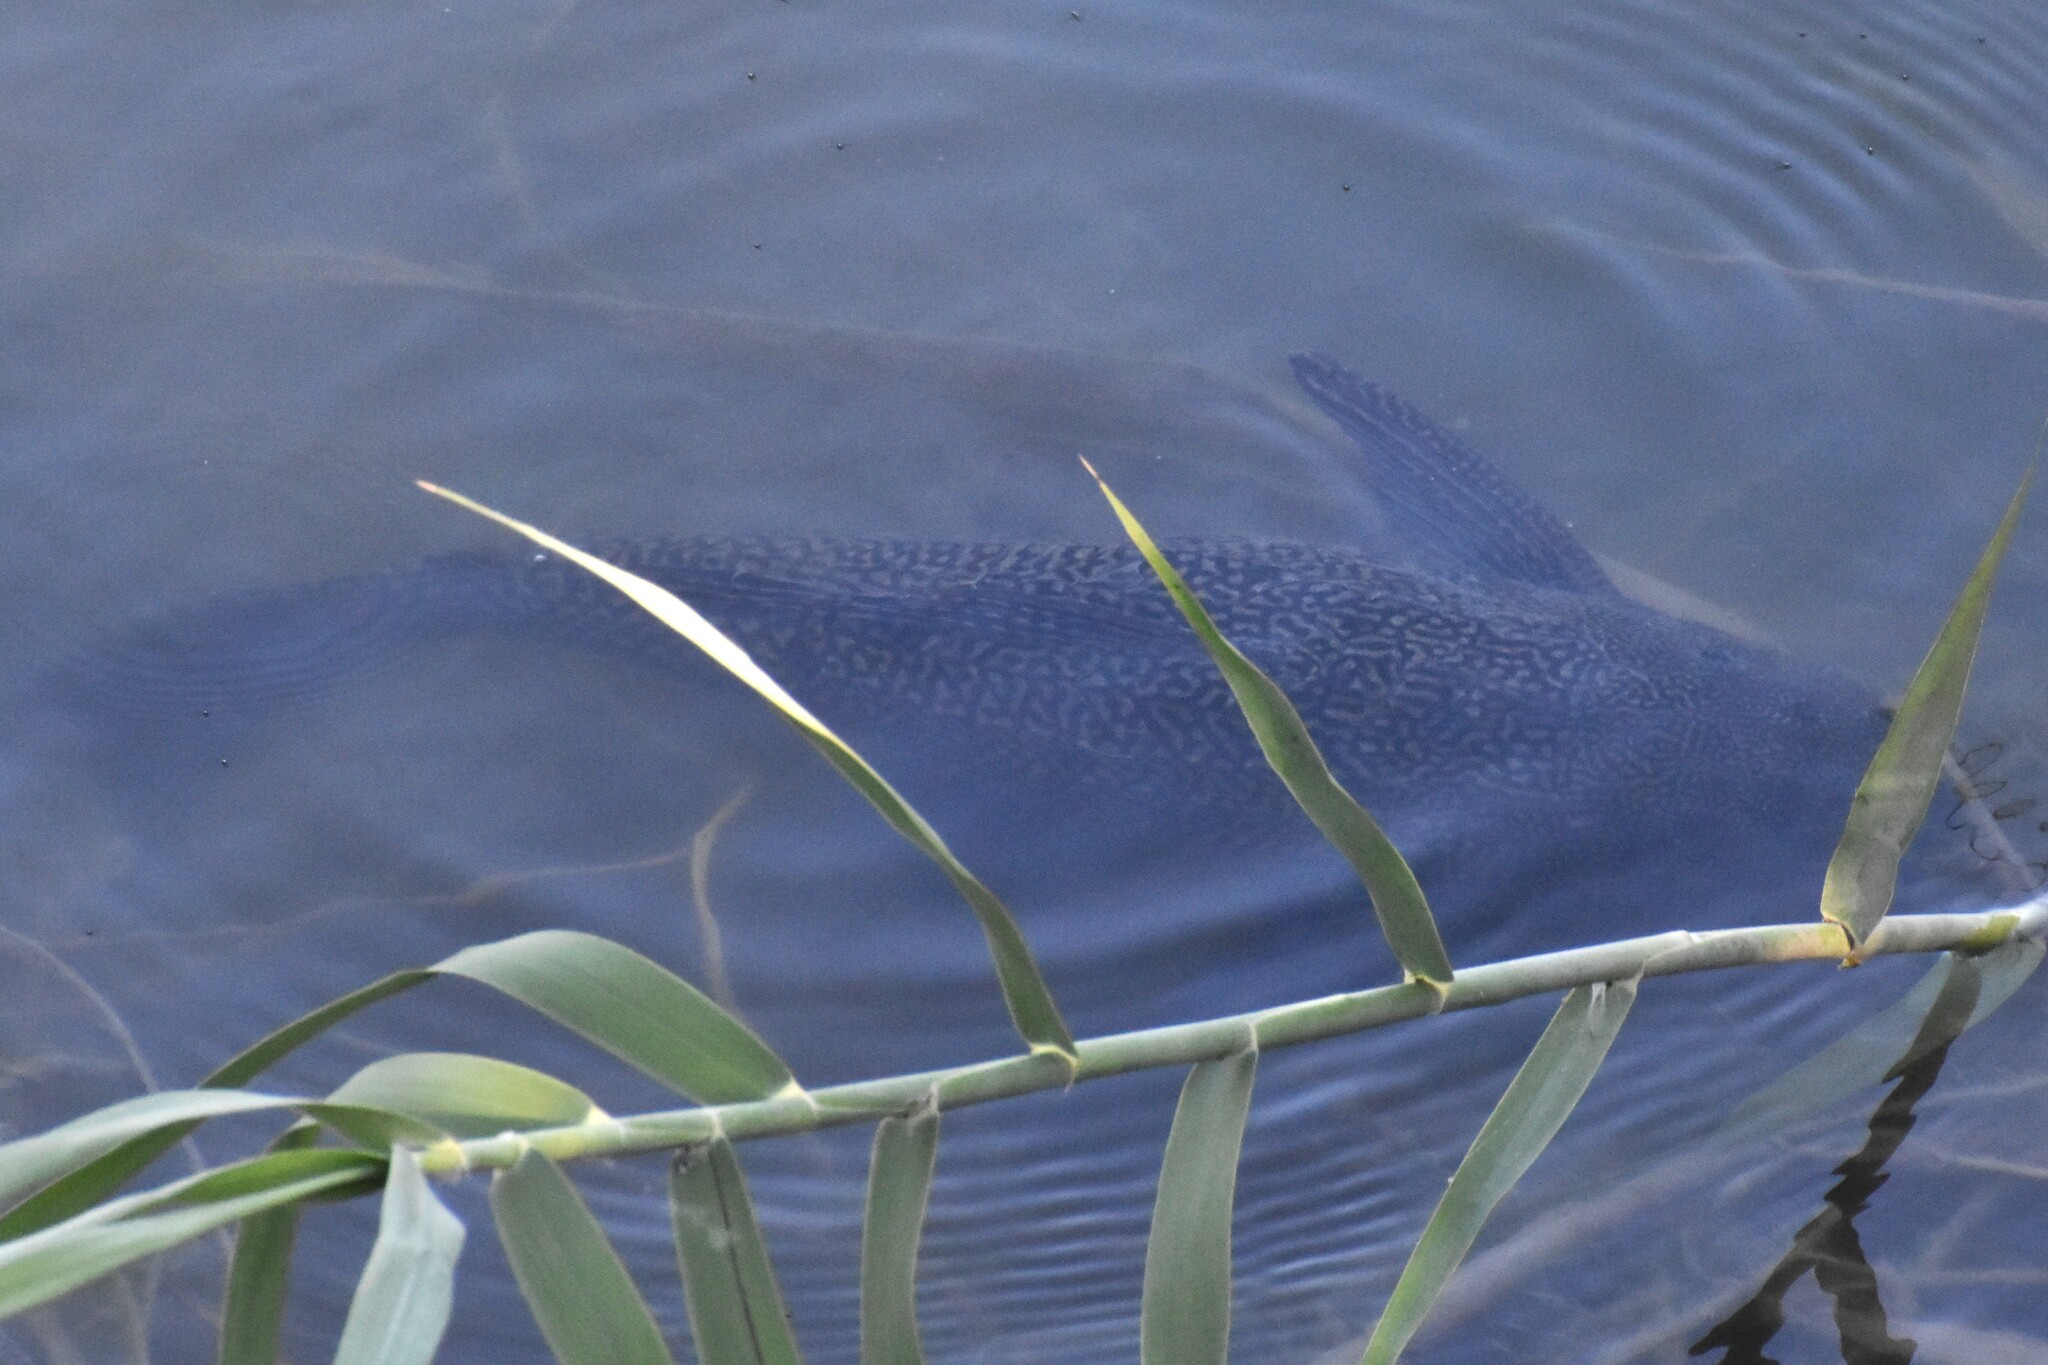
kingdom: Animalia
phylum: Chordata
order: Siluriformes
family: Loricariidae
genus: Pterygoplichthys
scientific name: Pterygoplichthys
